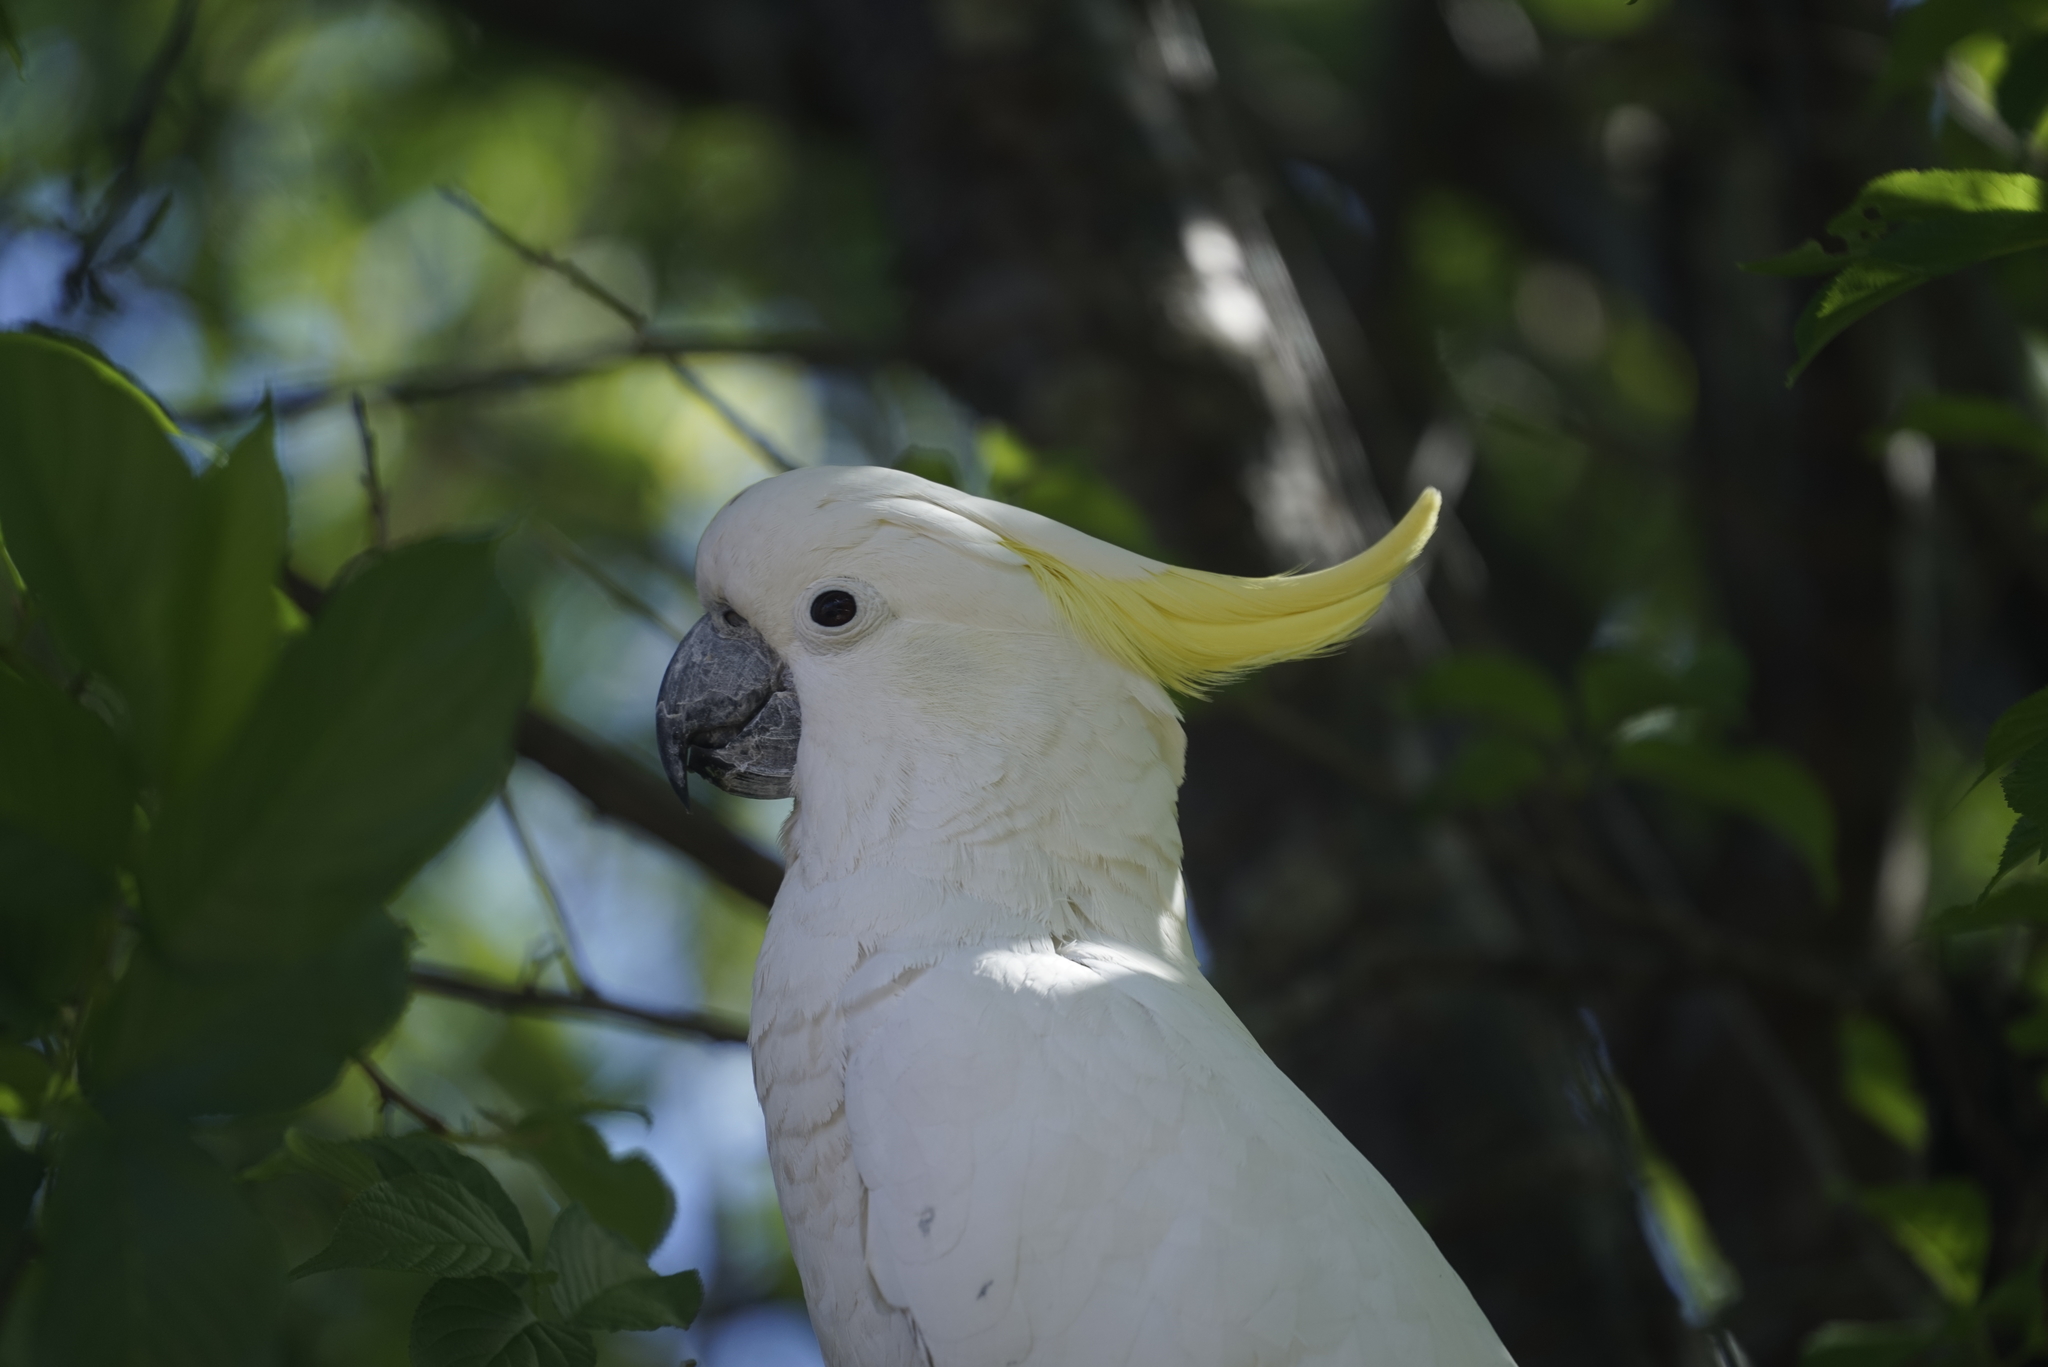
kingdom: Animalia
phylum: Chordata
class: Aves
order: Psittaciformes
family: Psittacidae
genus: Cacatua
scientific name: Cacatua galerita
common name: Sulphur-crested cockatoo
